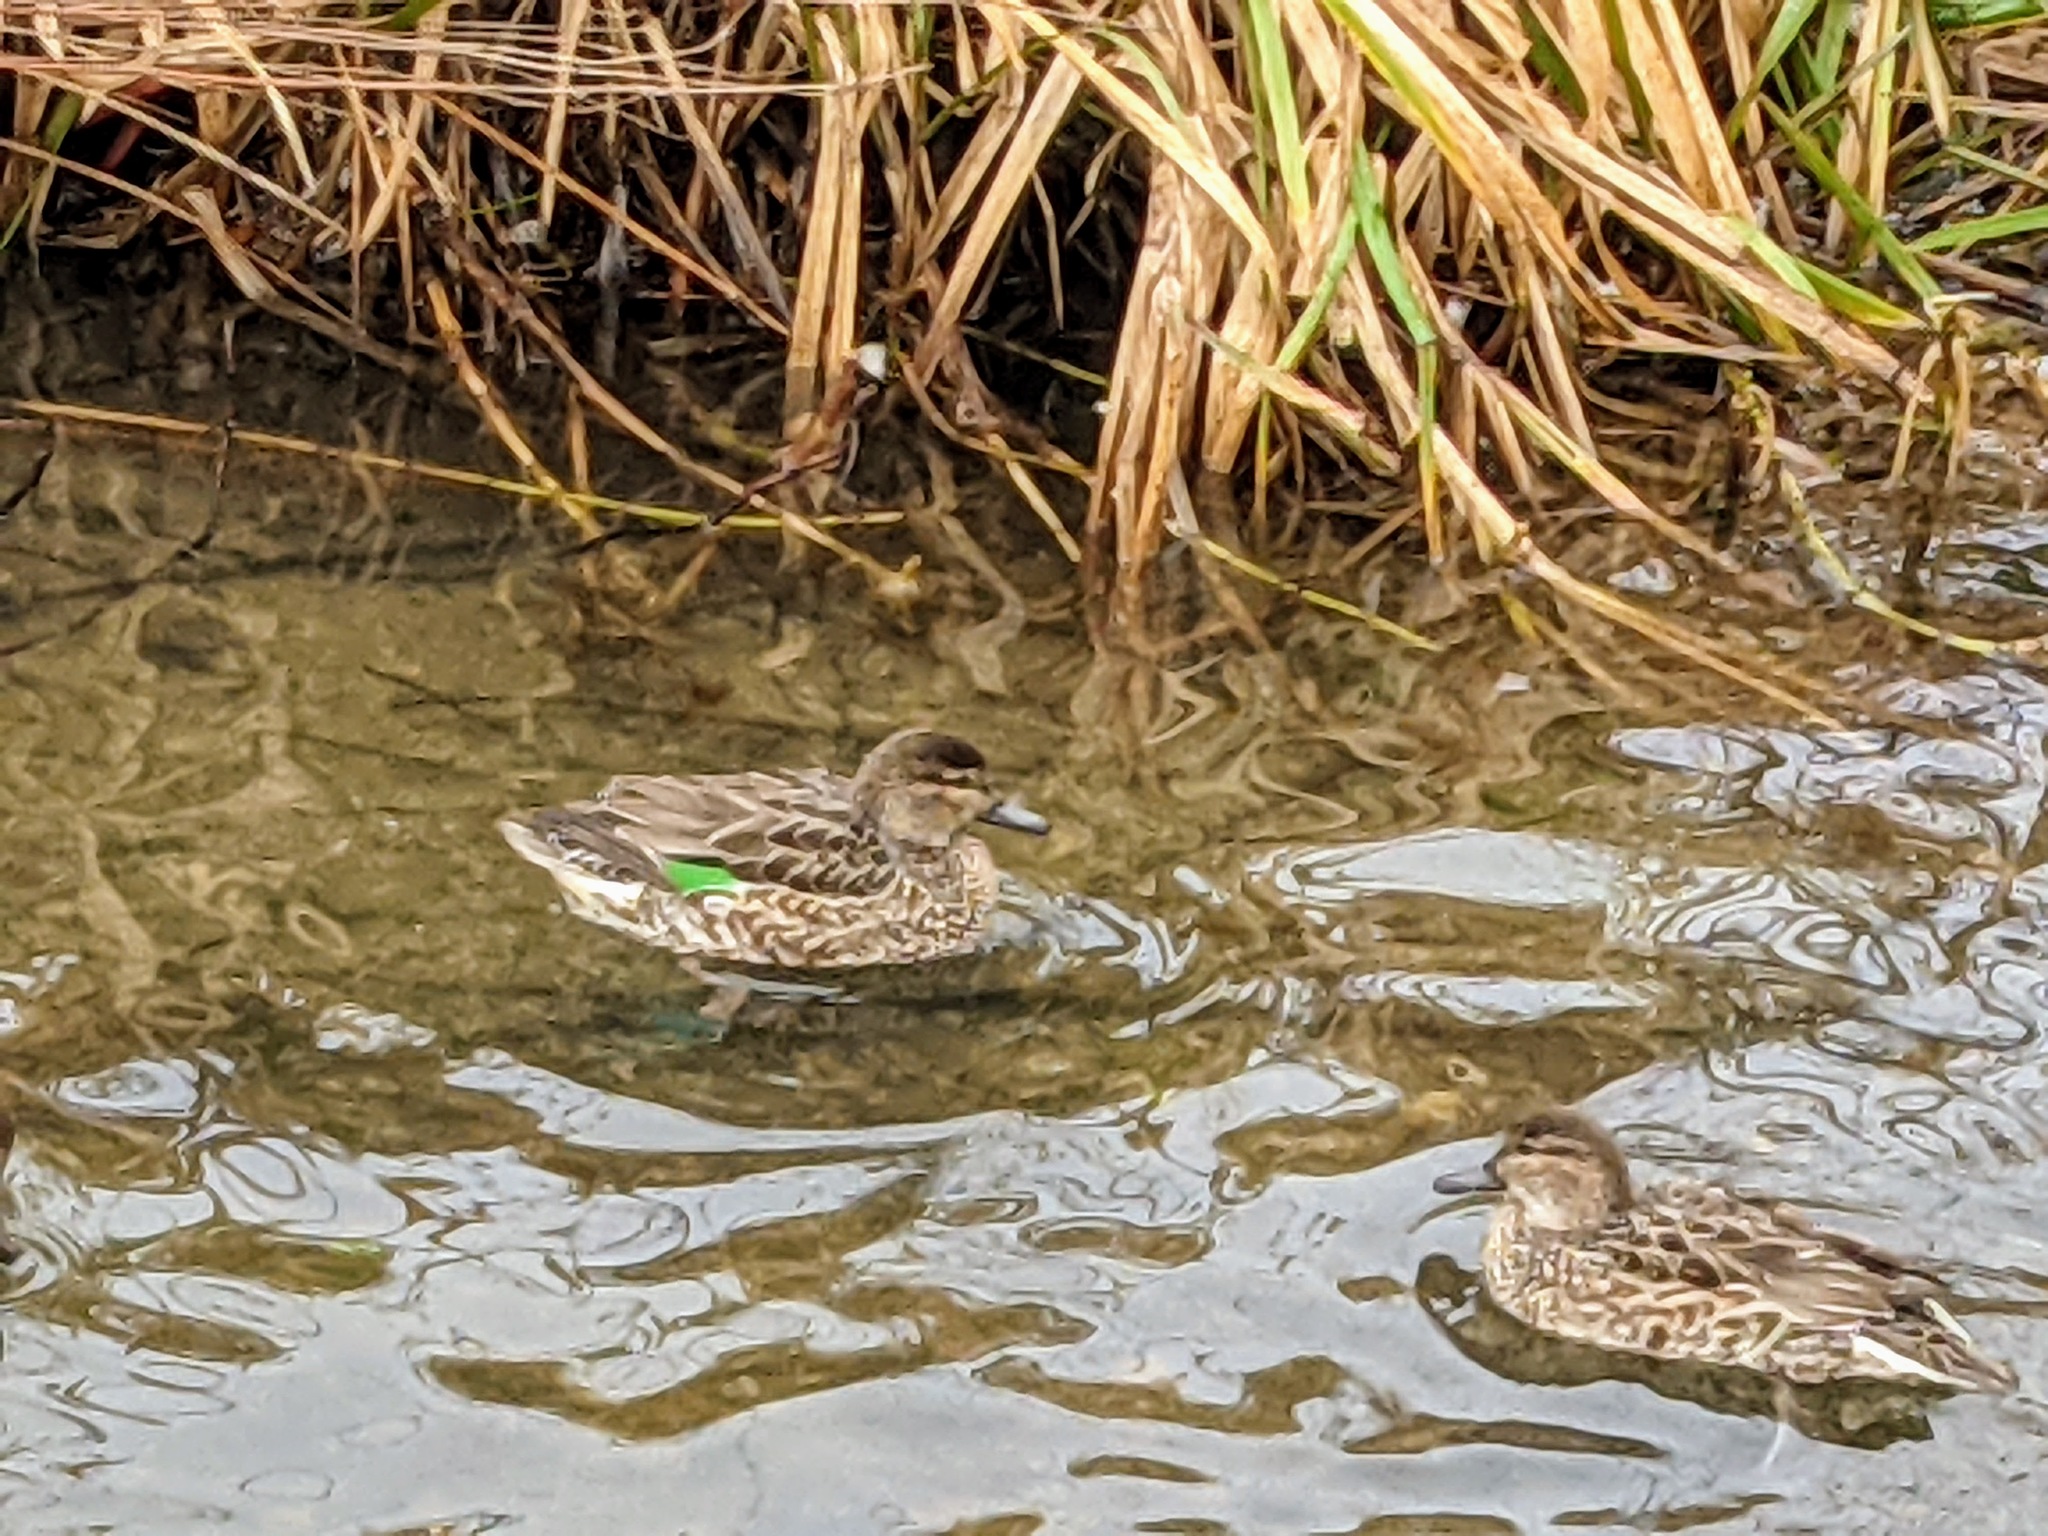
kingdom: Animalia
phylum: Chordata
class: Aves
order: Anseriformes
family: Anatidae
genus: Anas
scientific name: Anas crecca
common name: Eurasian teal
